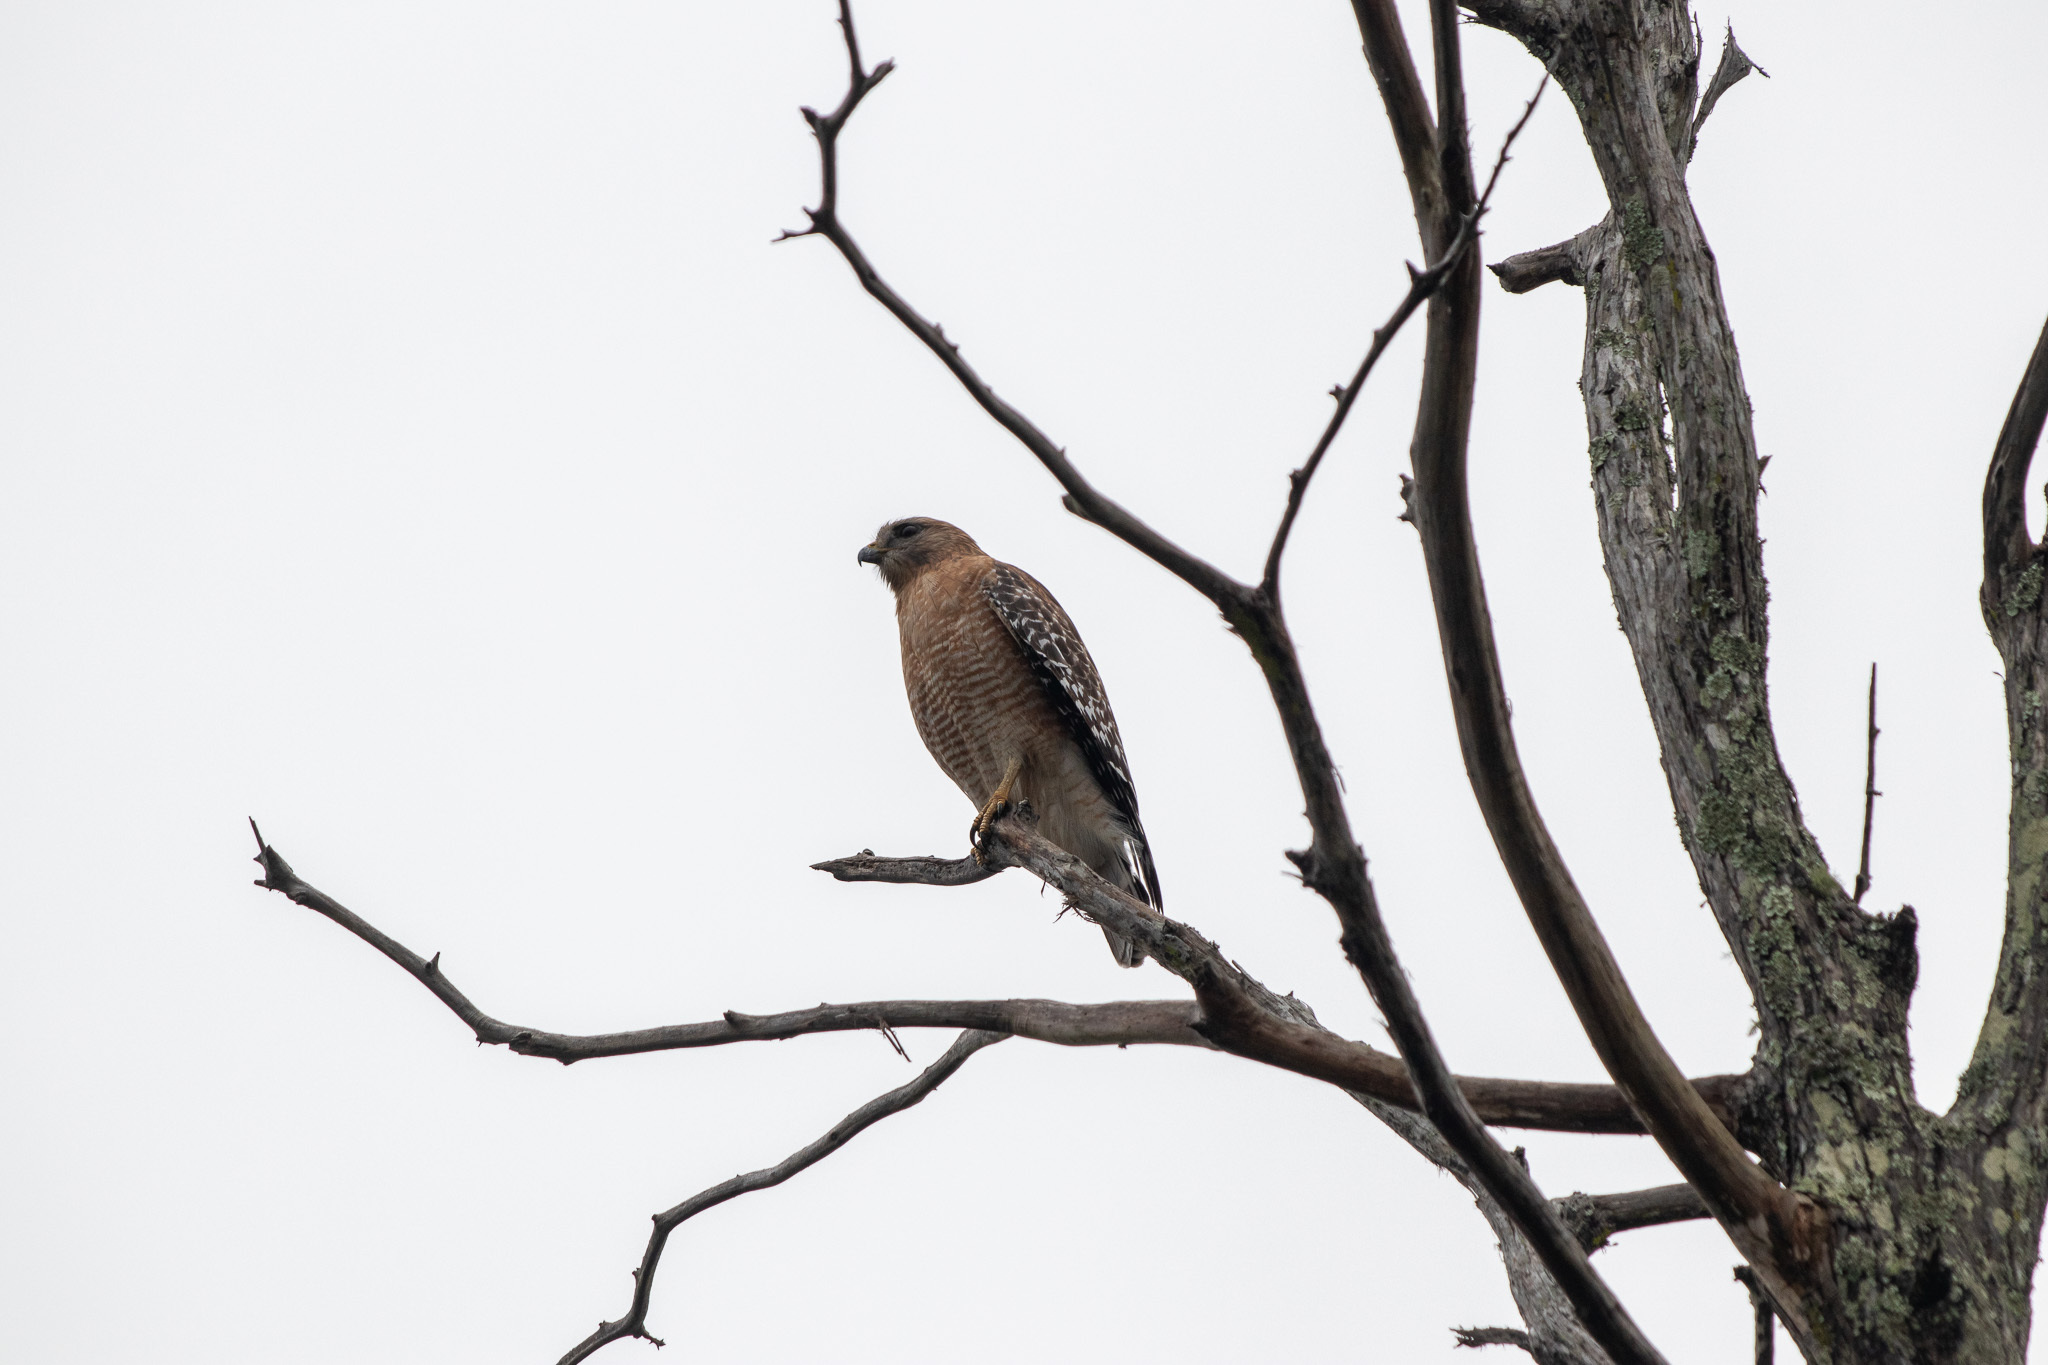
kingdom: Animalia
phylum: Chordata
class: Aves
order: Accipitriformes
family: Accipitridae
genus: Buteo
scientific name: Buteo lineatus
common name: Red-shouldered hawk
